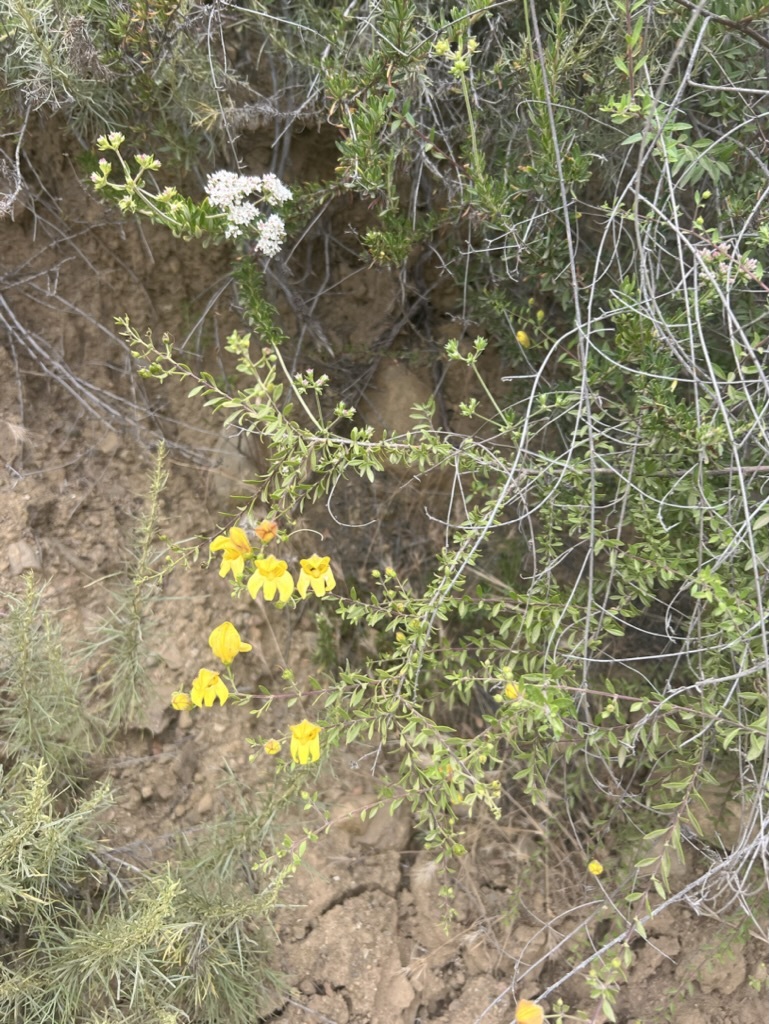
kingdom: Plantae
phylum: Tracheophyta
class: Magnoliopsida
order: Lamiales
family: Plantaginaceae
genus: Keckiella
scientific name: Keckiella antirrhinoides
